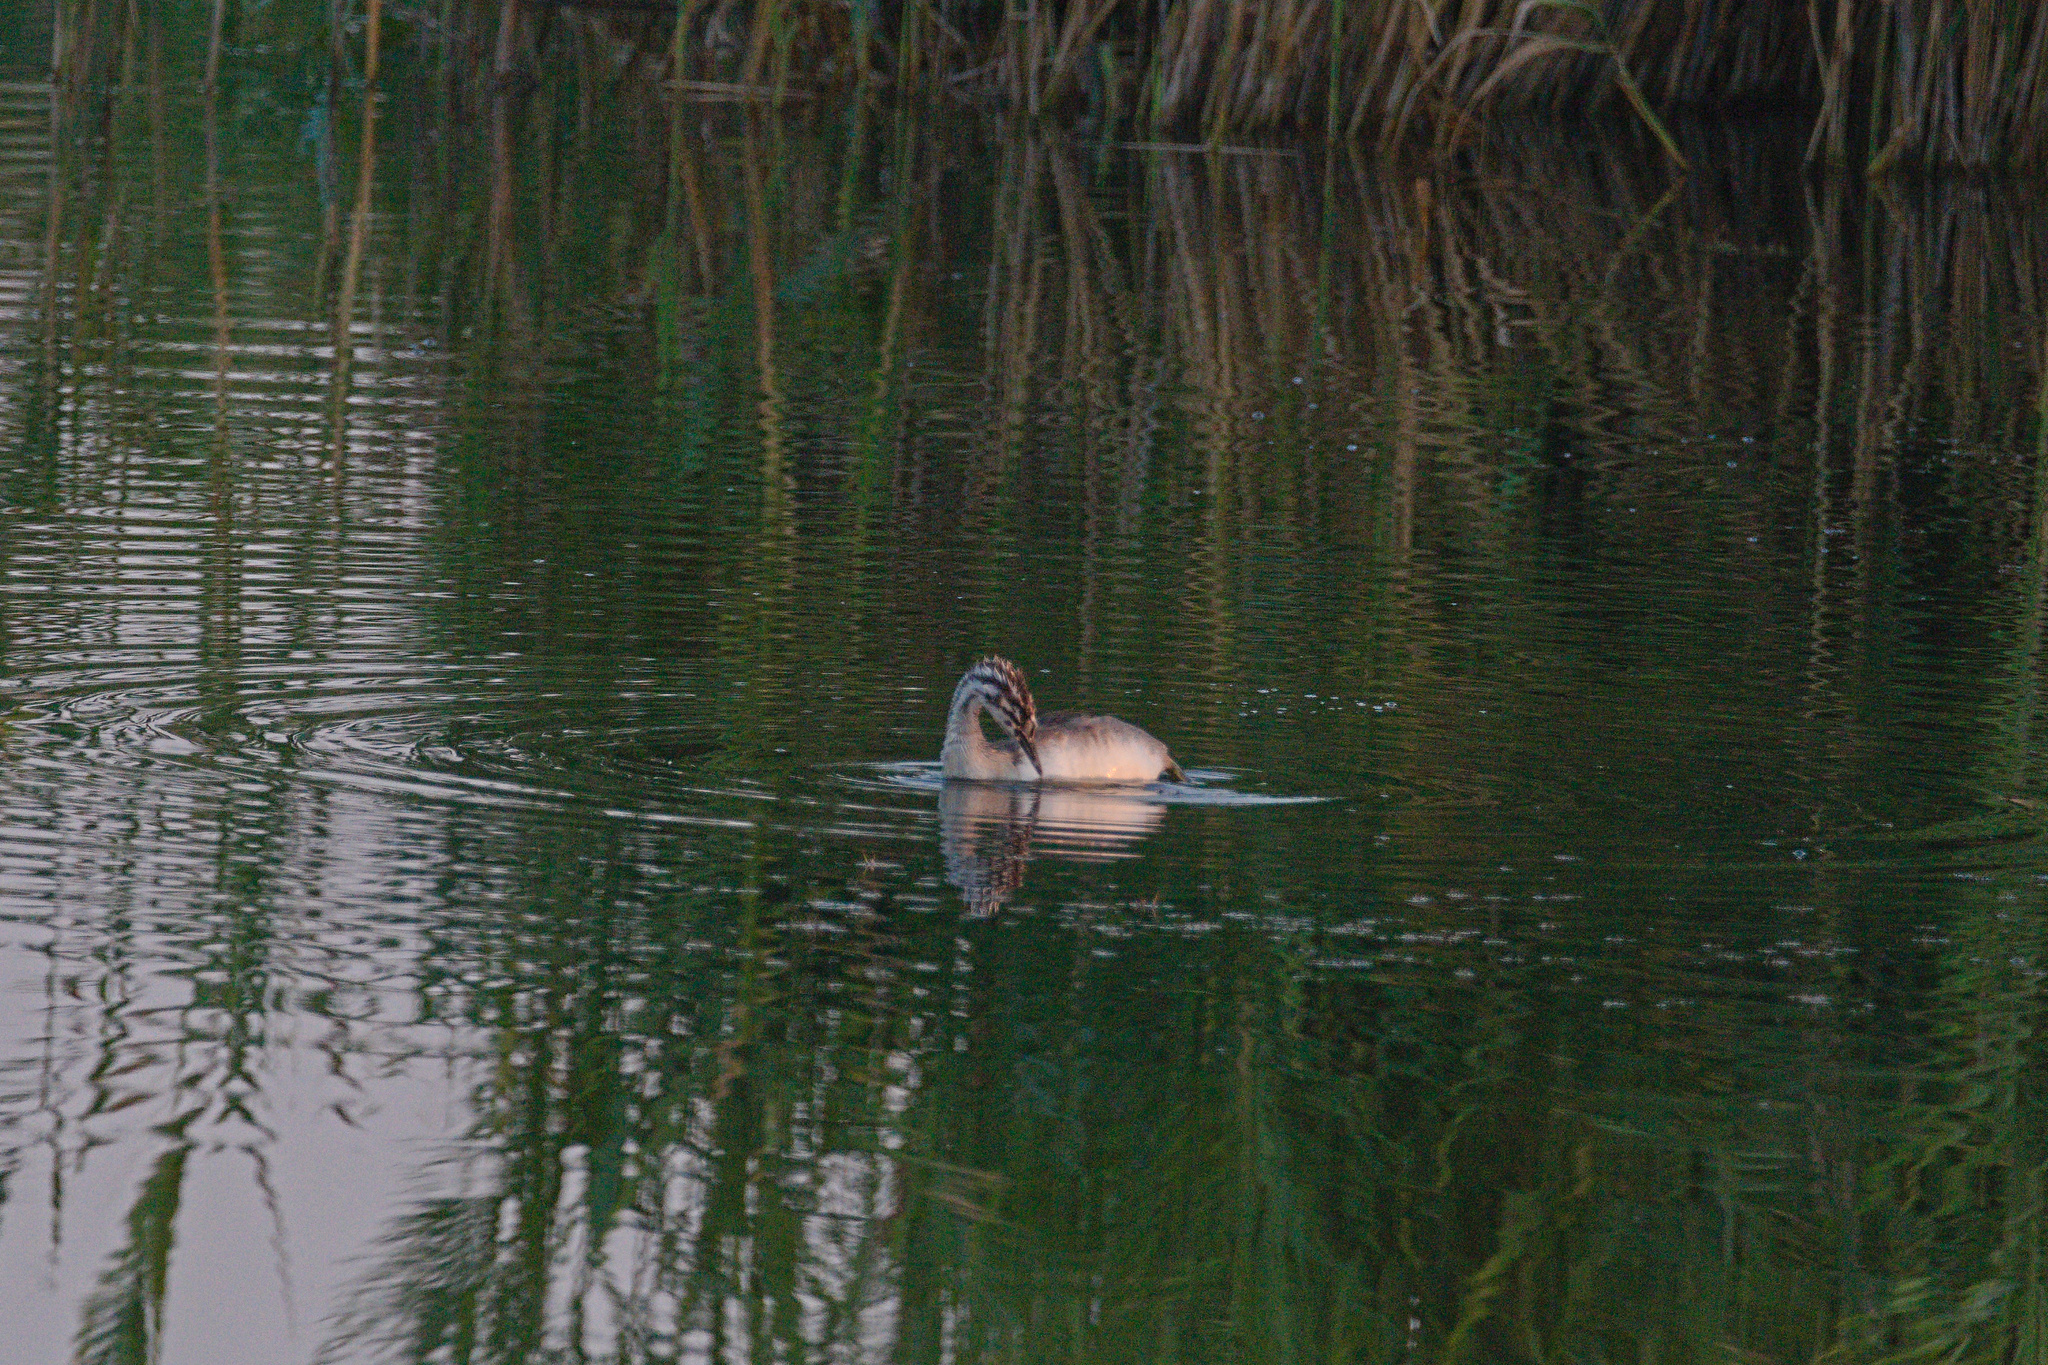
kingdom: Animalia
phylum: Chordata
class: Aves
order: Podicipediformes
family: Podicipedidae
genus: Podiceps
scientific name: Podiceps cristatus
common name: Great crested grebe
